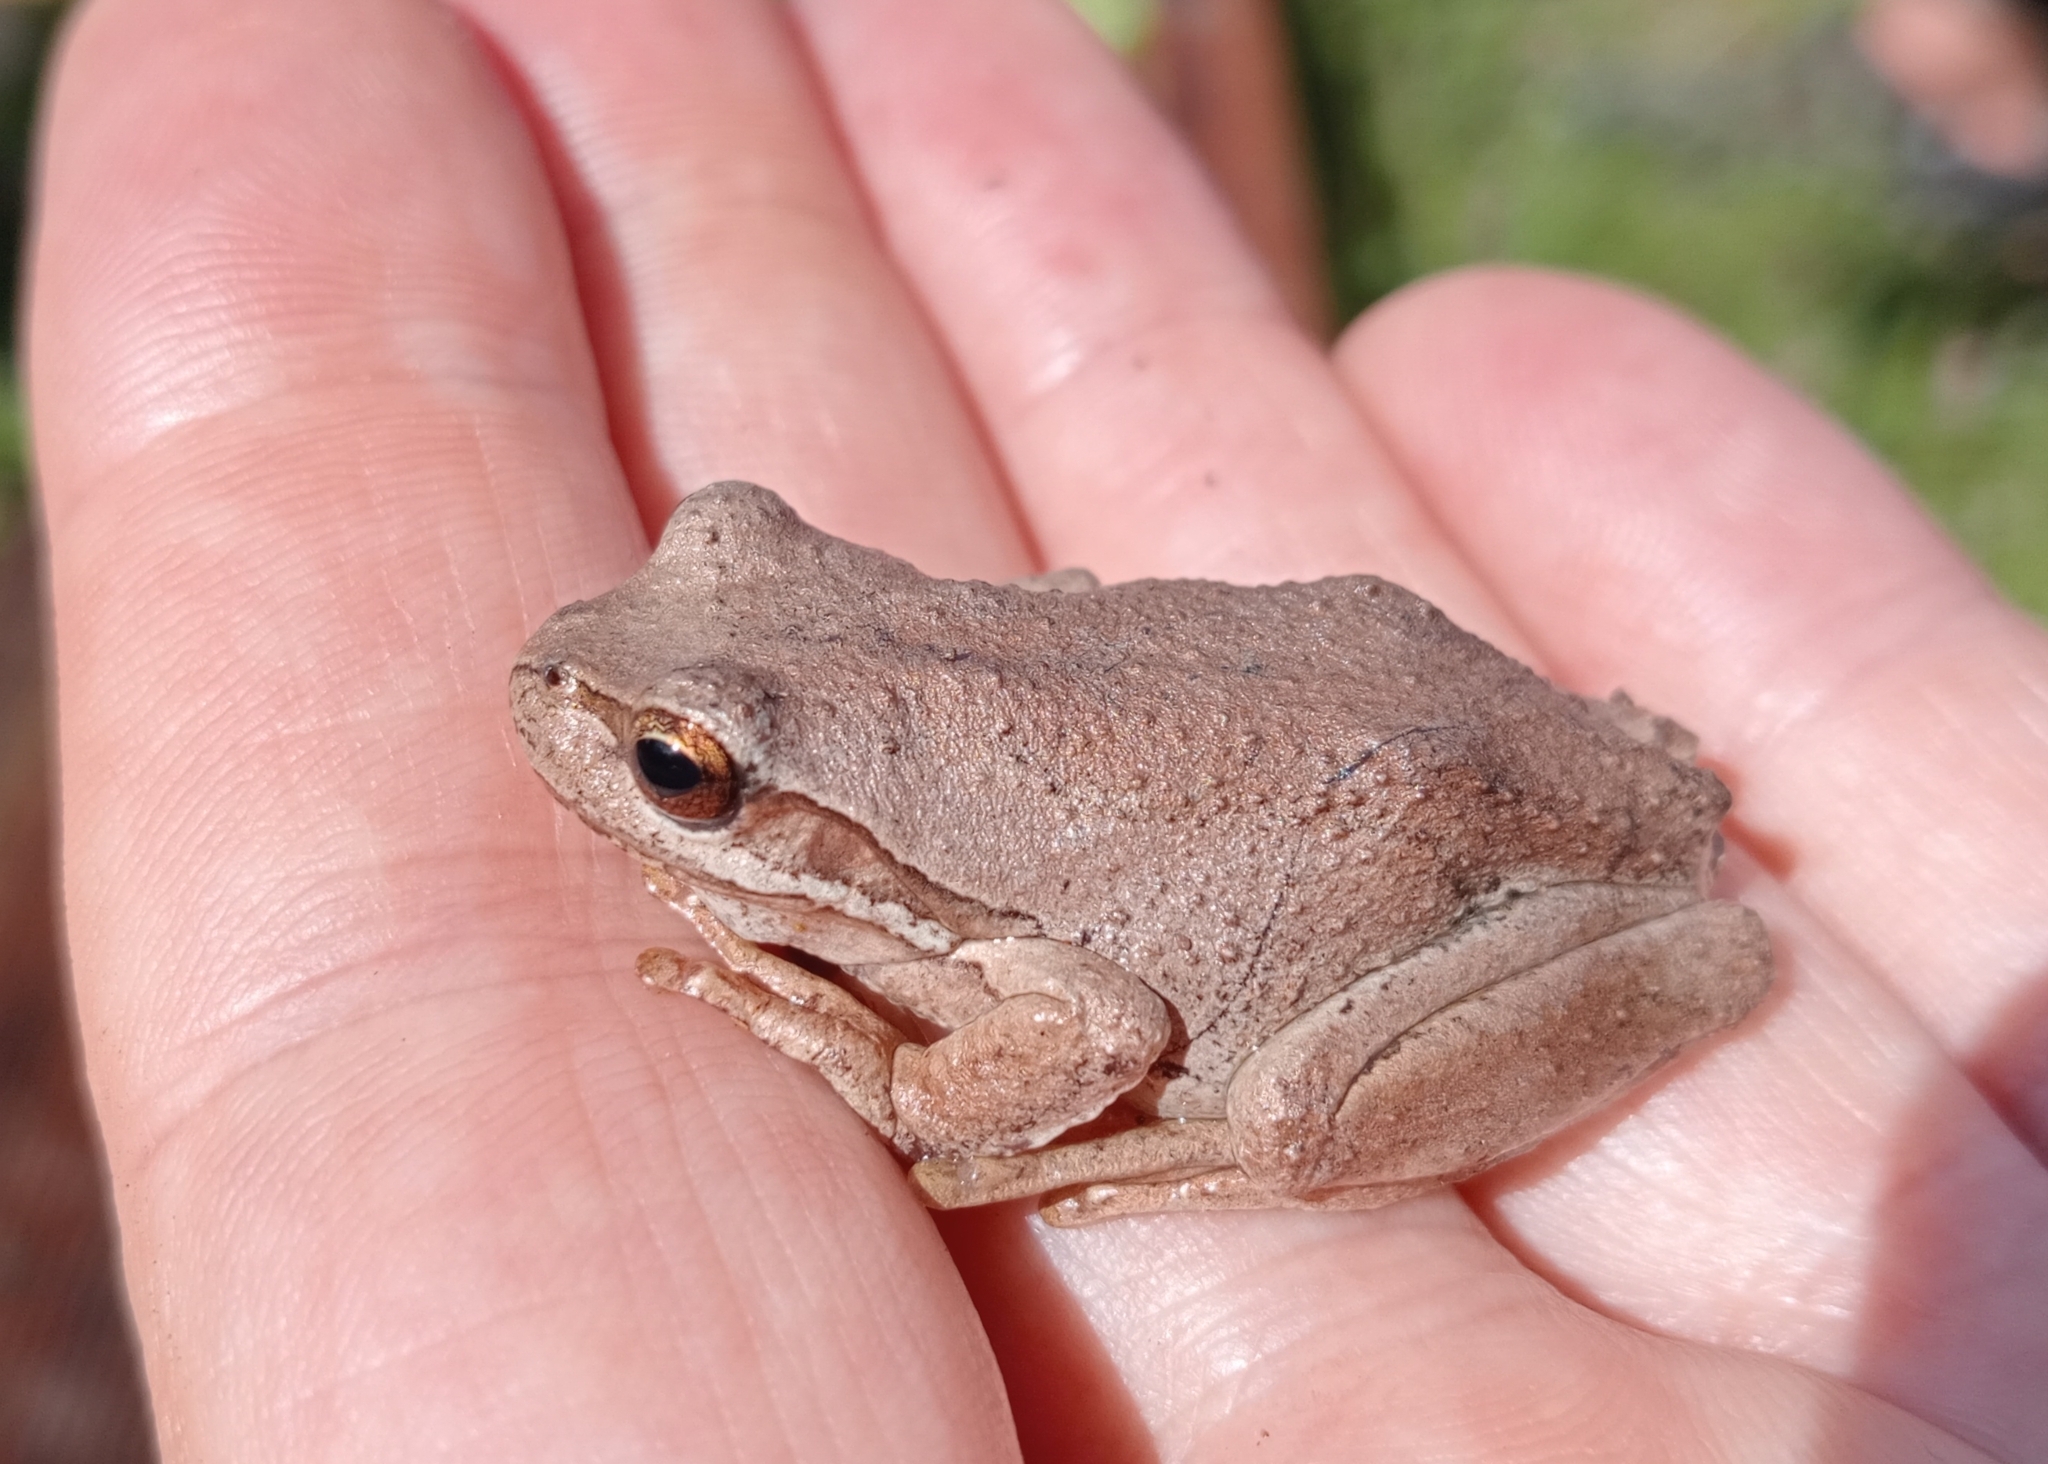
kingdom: Animalia
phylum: Chordata
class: Amphibia
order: Anura
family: Pelodryadidae
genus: Litoria
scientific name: Litoria ewingii
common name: Southern brown tree frog
